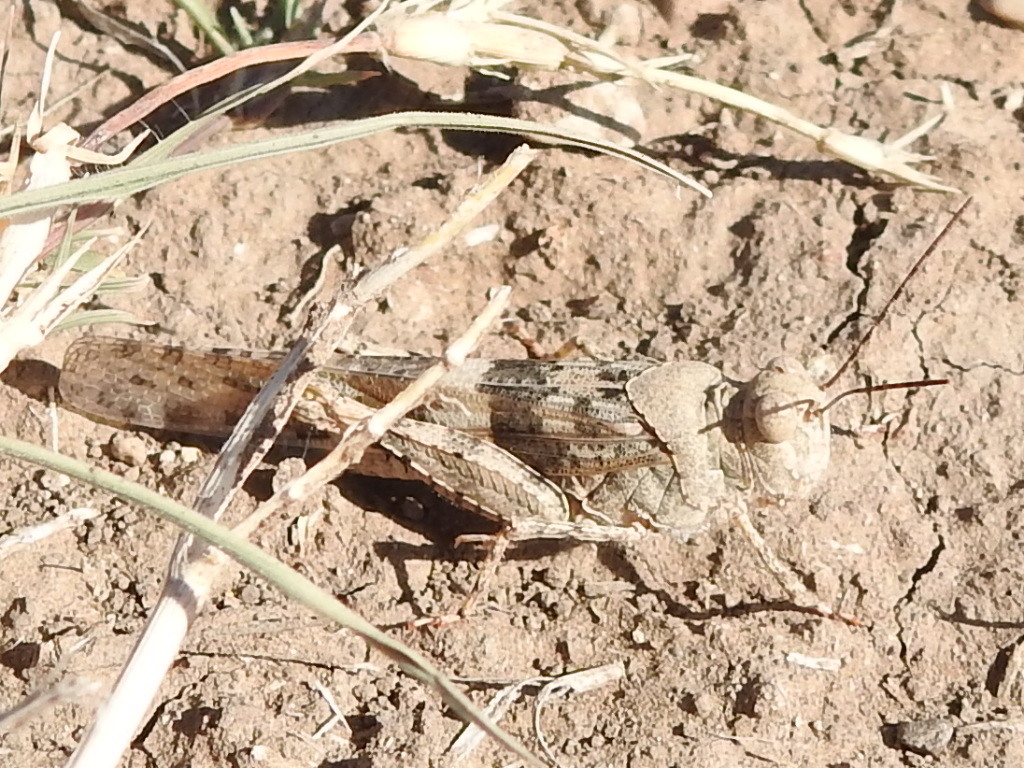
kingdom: Animalia
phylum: Arthropoda
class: Insecta
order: Orthoptera
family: Acrididae
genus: Trimerotropis
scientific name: Trimerotropis pallidipennis
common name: Pallid-winged grasshopper
